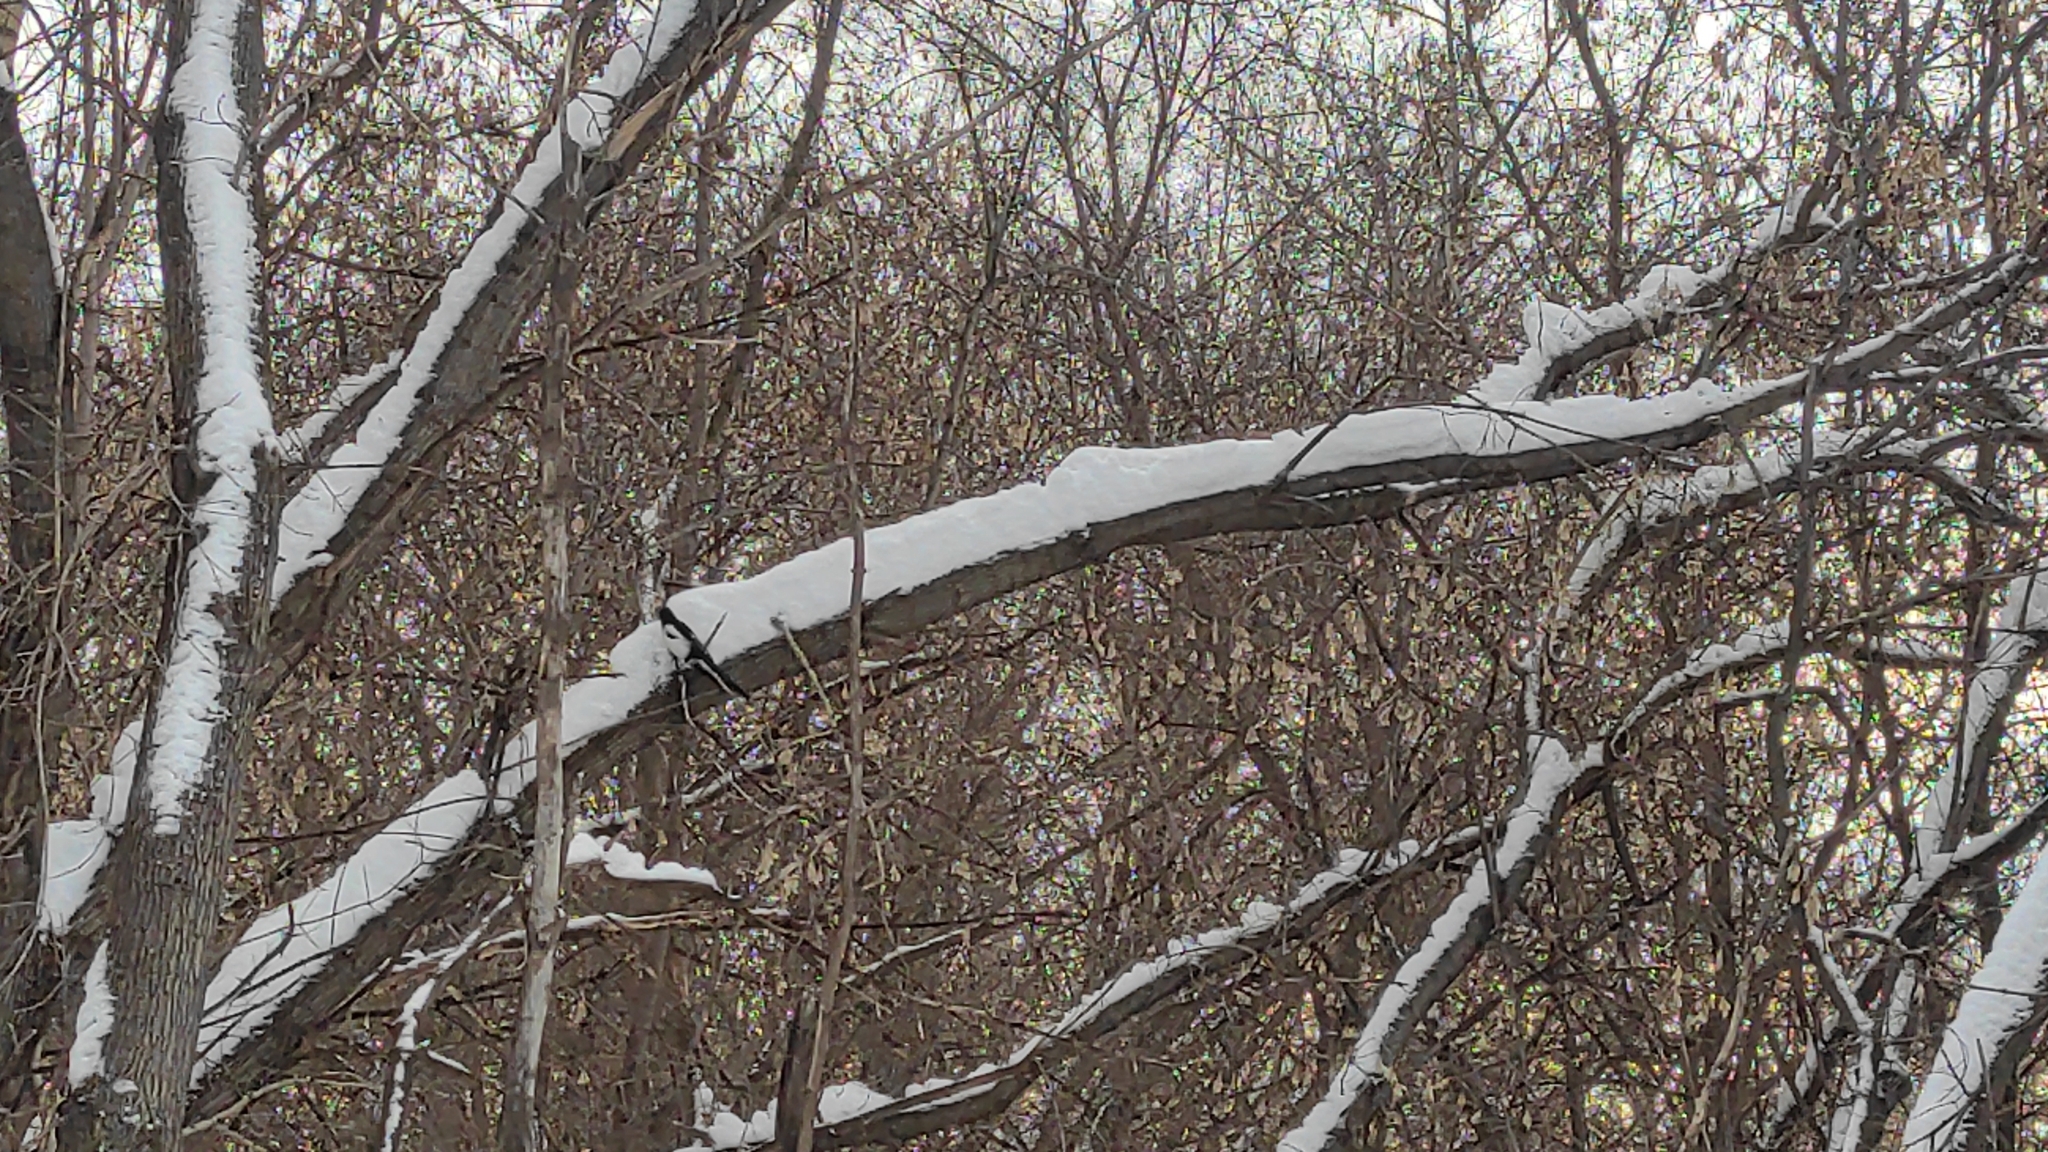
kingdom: Animalia
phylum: Chordata
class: Aves
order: Passeriformes
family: Corvidae
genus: Pica
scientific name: Pica pica
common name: Eurasian magpie
